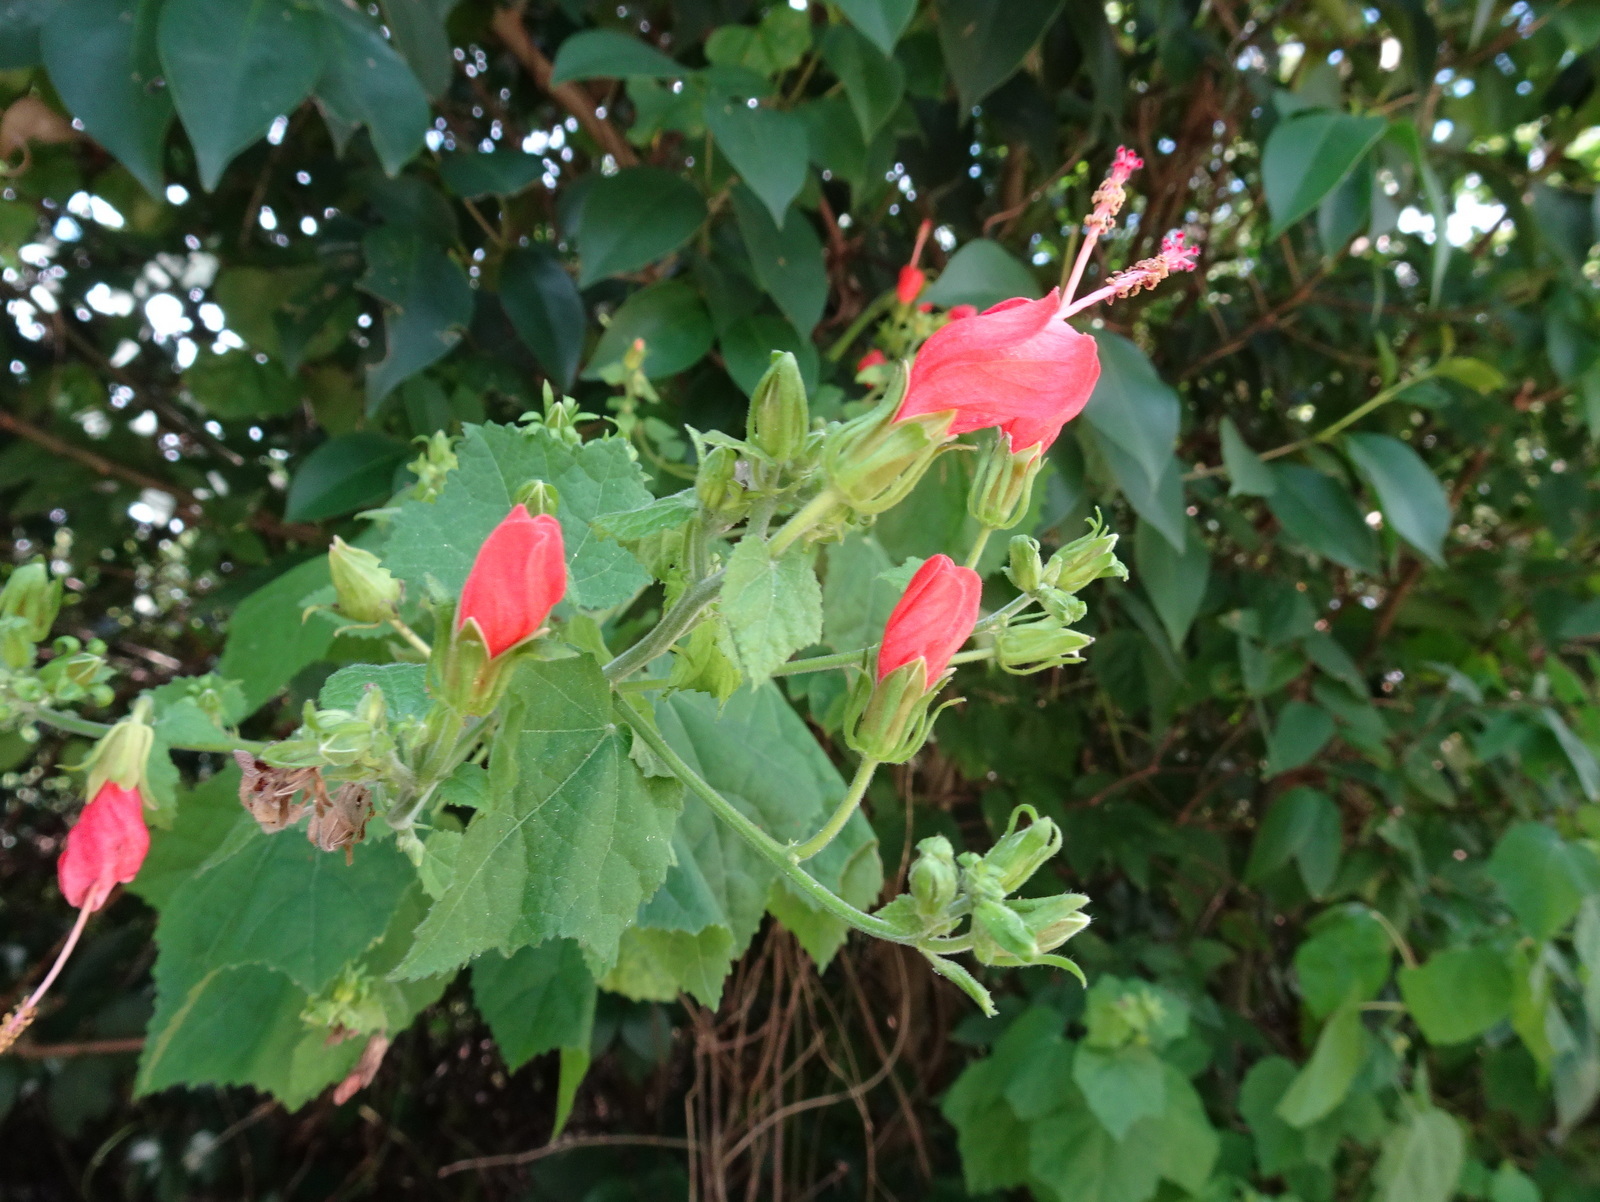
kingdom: Plantae
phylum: Tracheophyta
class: Magnoliopsida
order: Malvales
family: Malvaceae
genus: Malvaviscus
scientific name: Malvaviscus arboreus
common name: Wax mallow
